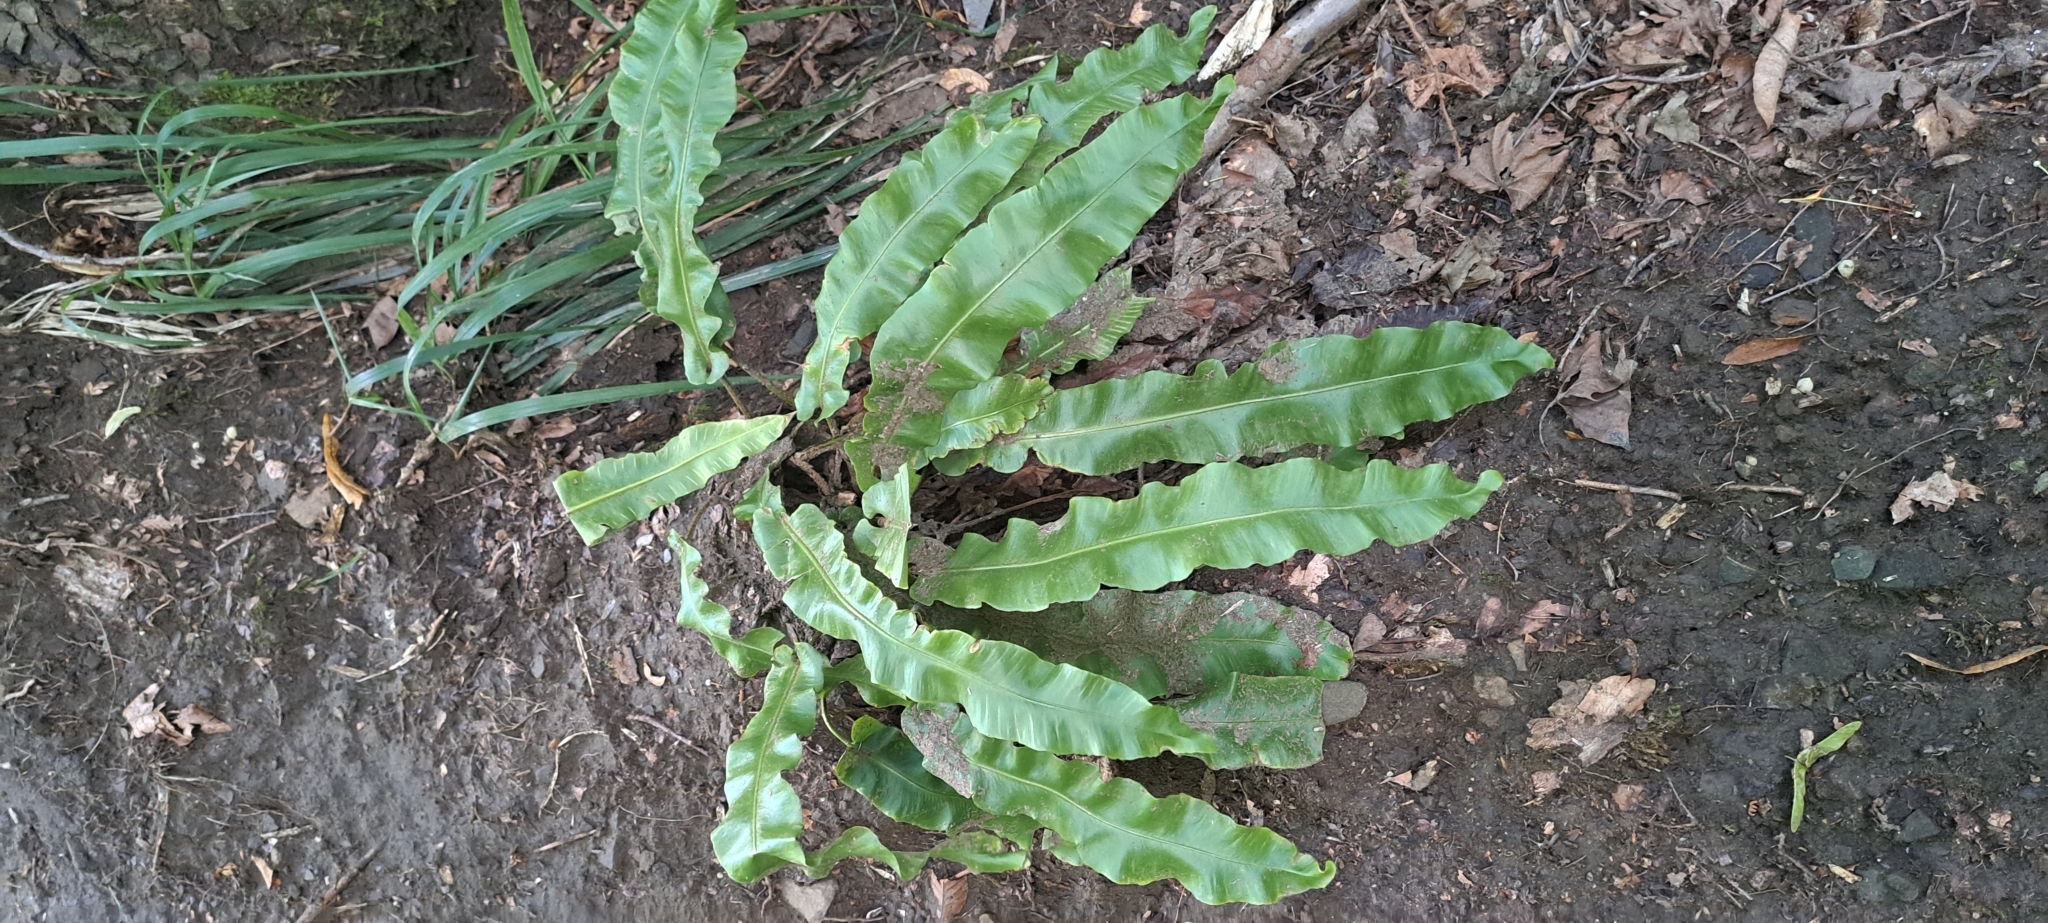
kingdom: Plantae
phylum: Tracheophyta
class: Polypodiopsida
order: Polypodiales
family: Aspleniaceae
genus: Asplenium
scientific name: Asplenium scolopendrium
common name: Hart's-tongue fern
